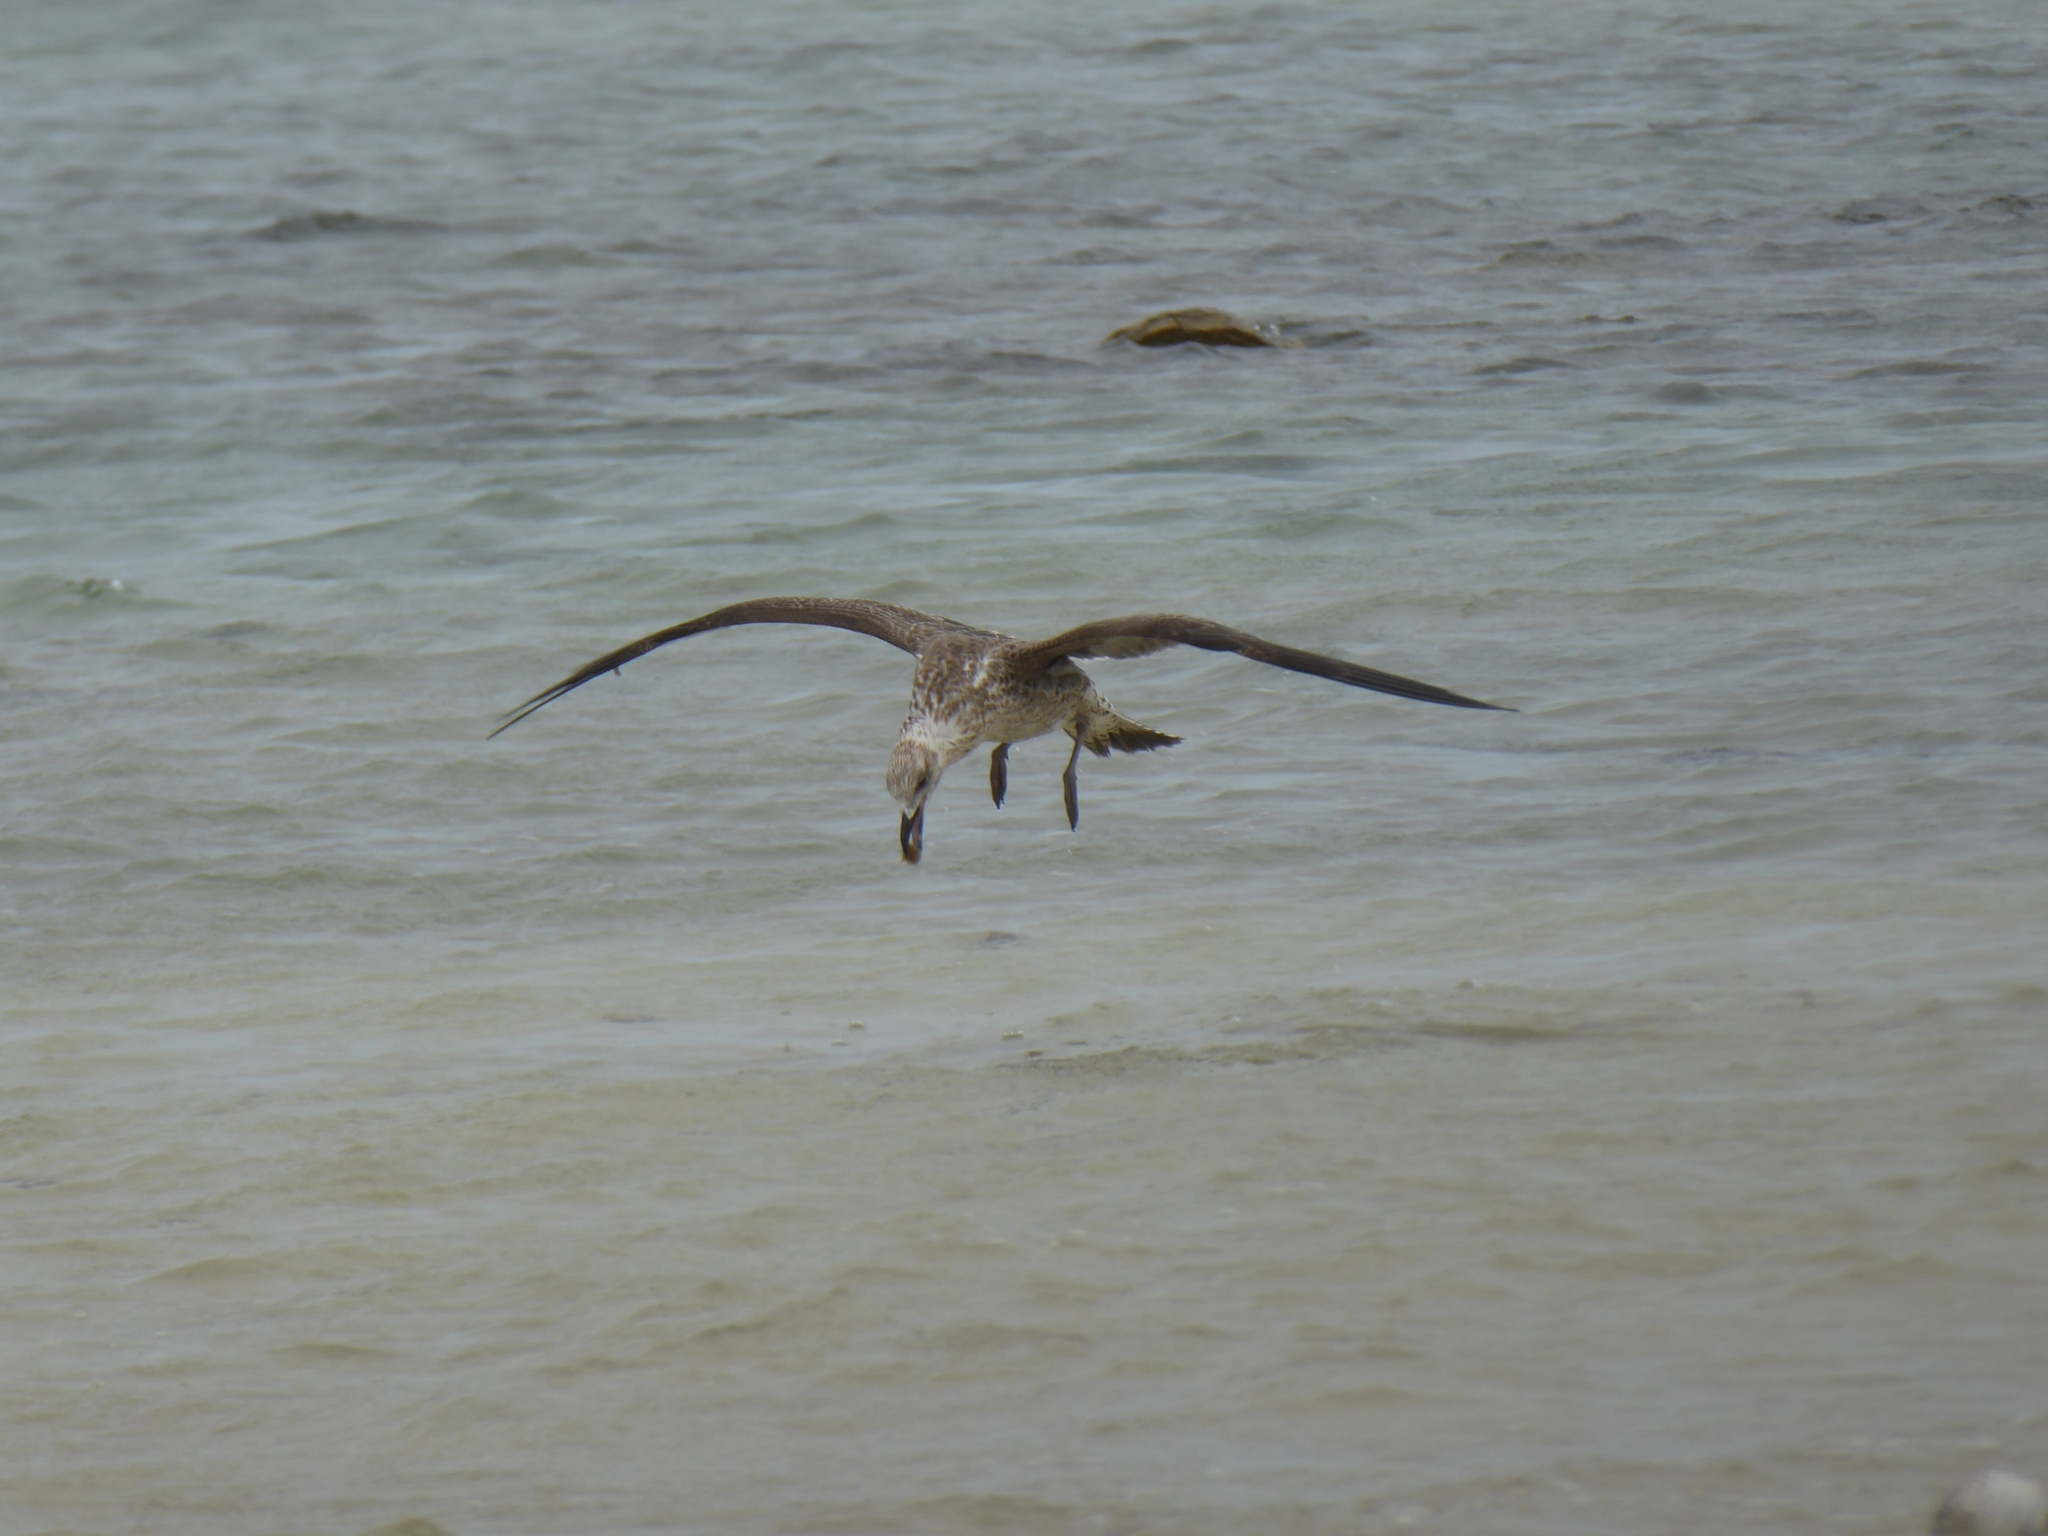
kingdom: Animalia
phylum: Chordata
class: Aves
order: Charadriiformes
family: Laridae
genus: Larus
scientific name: Larus dominicanus
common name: Kelp gull
